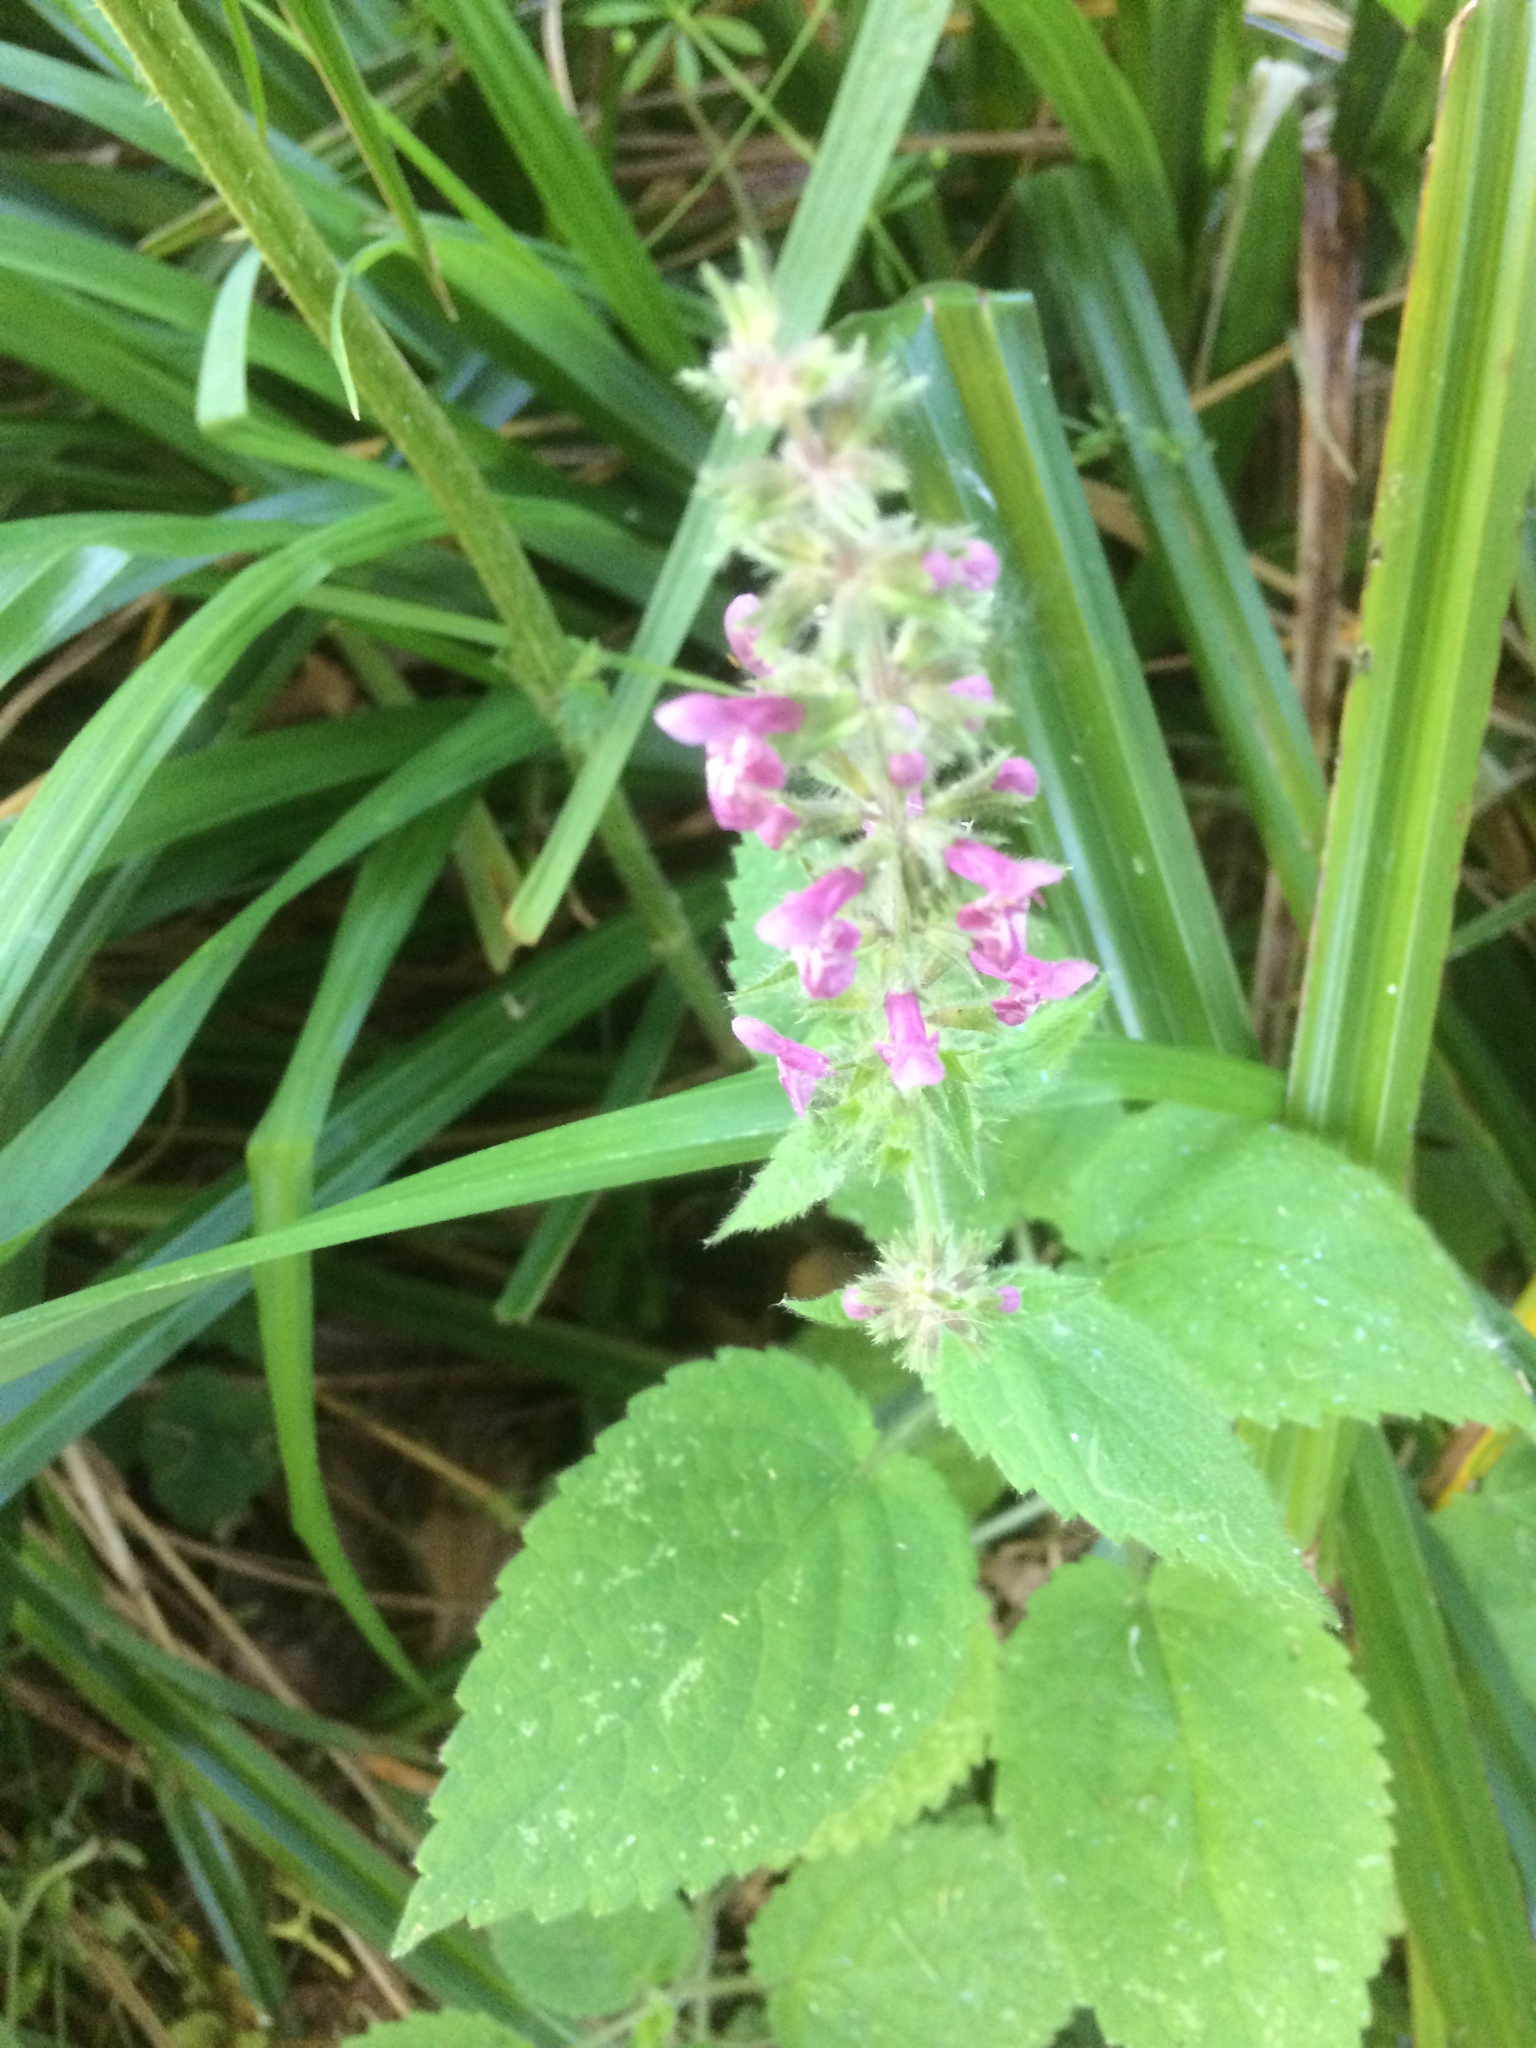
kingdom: Plantae
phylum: Tracheophyta
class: Magnoliopsida
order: Lamiales
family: Lamiaceae
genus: Stachys
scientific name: Stachys sylvatica
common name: Hedge woundwort
